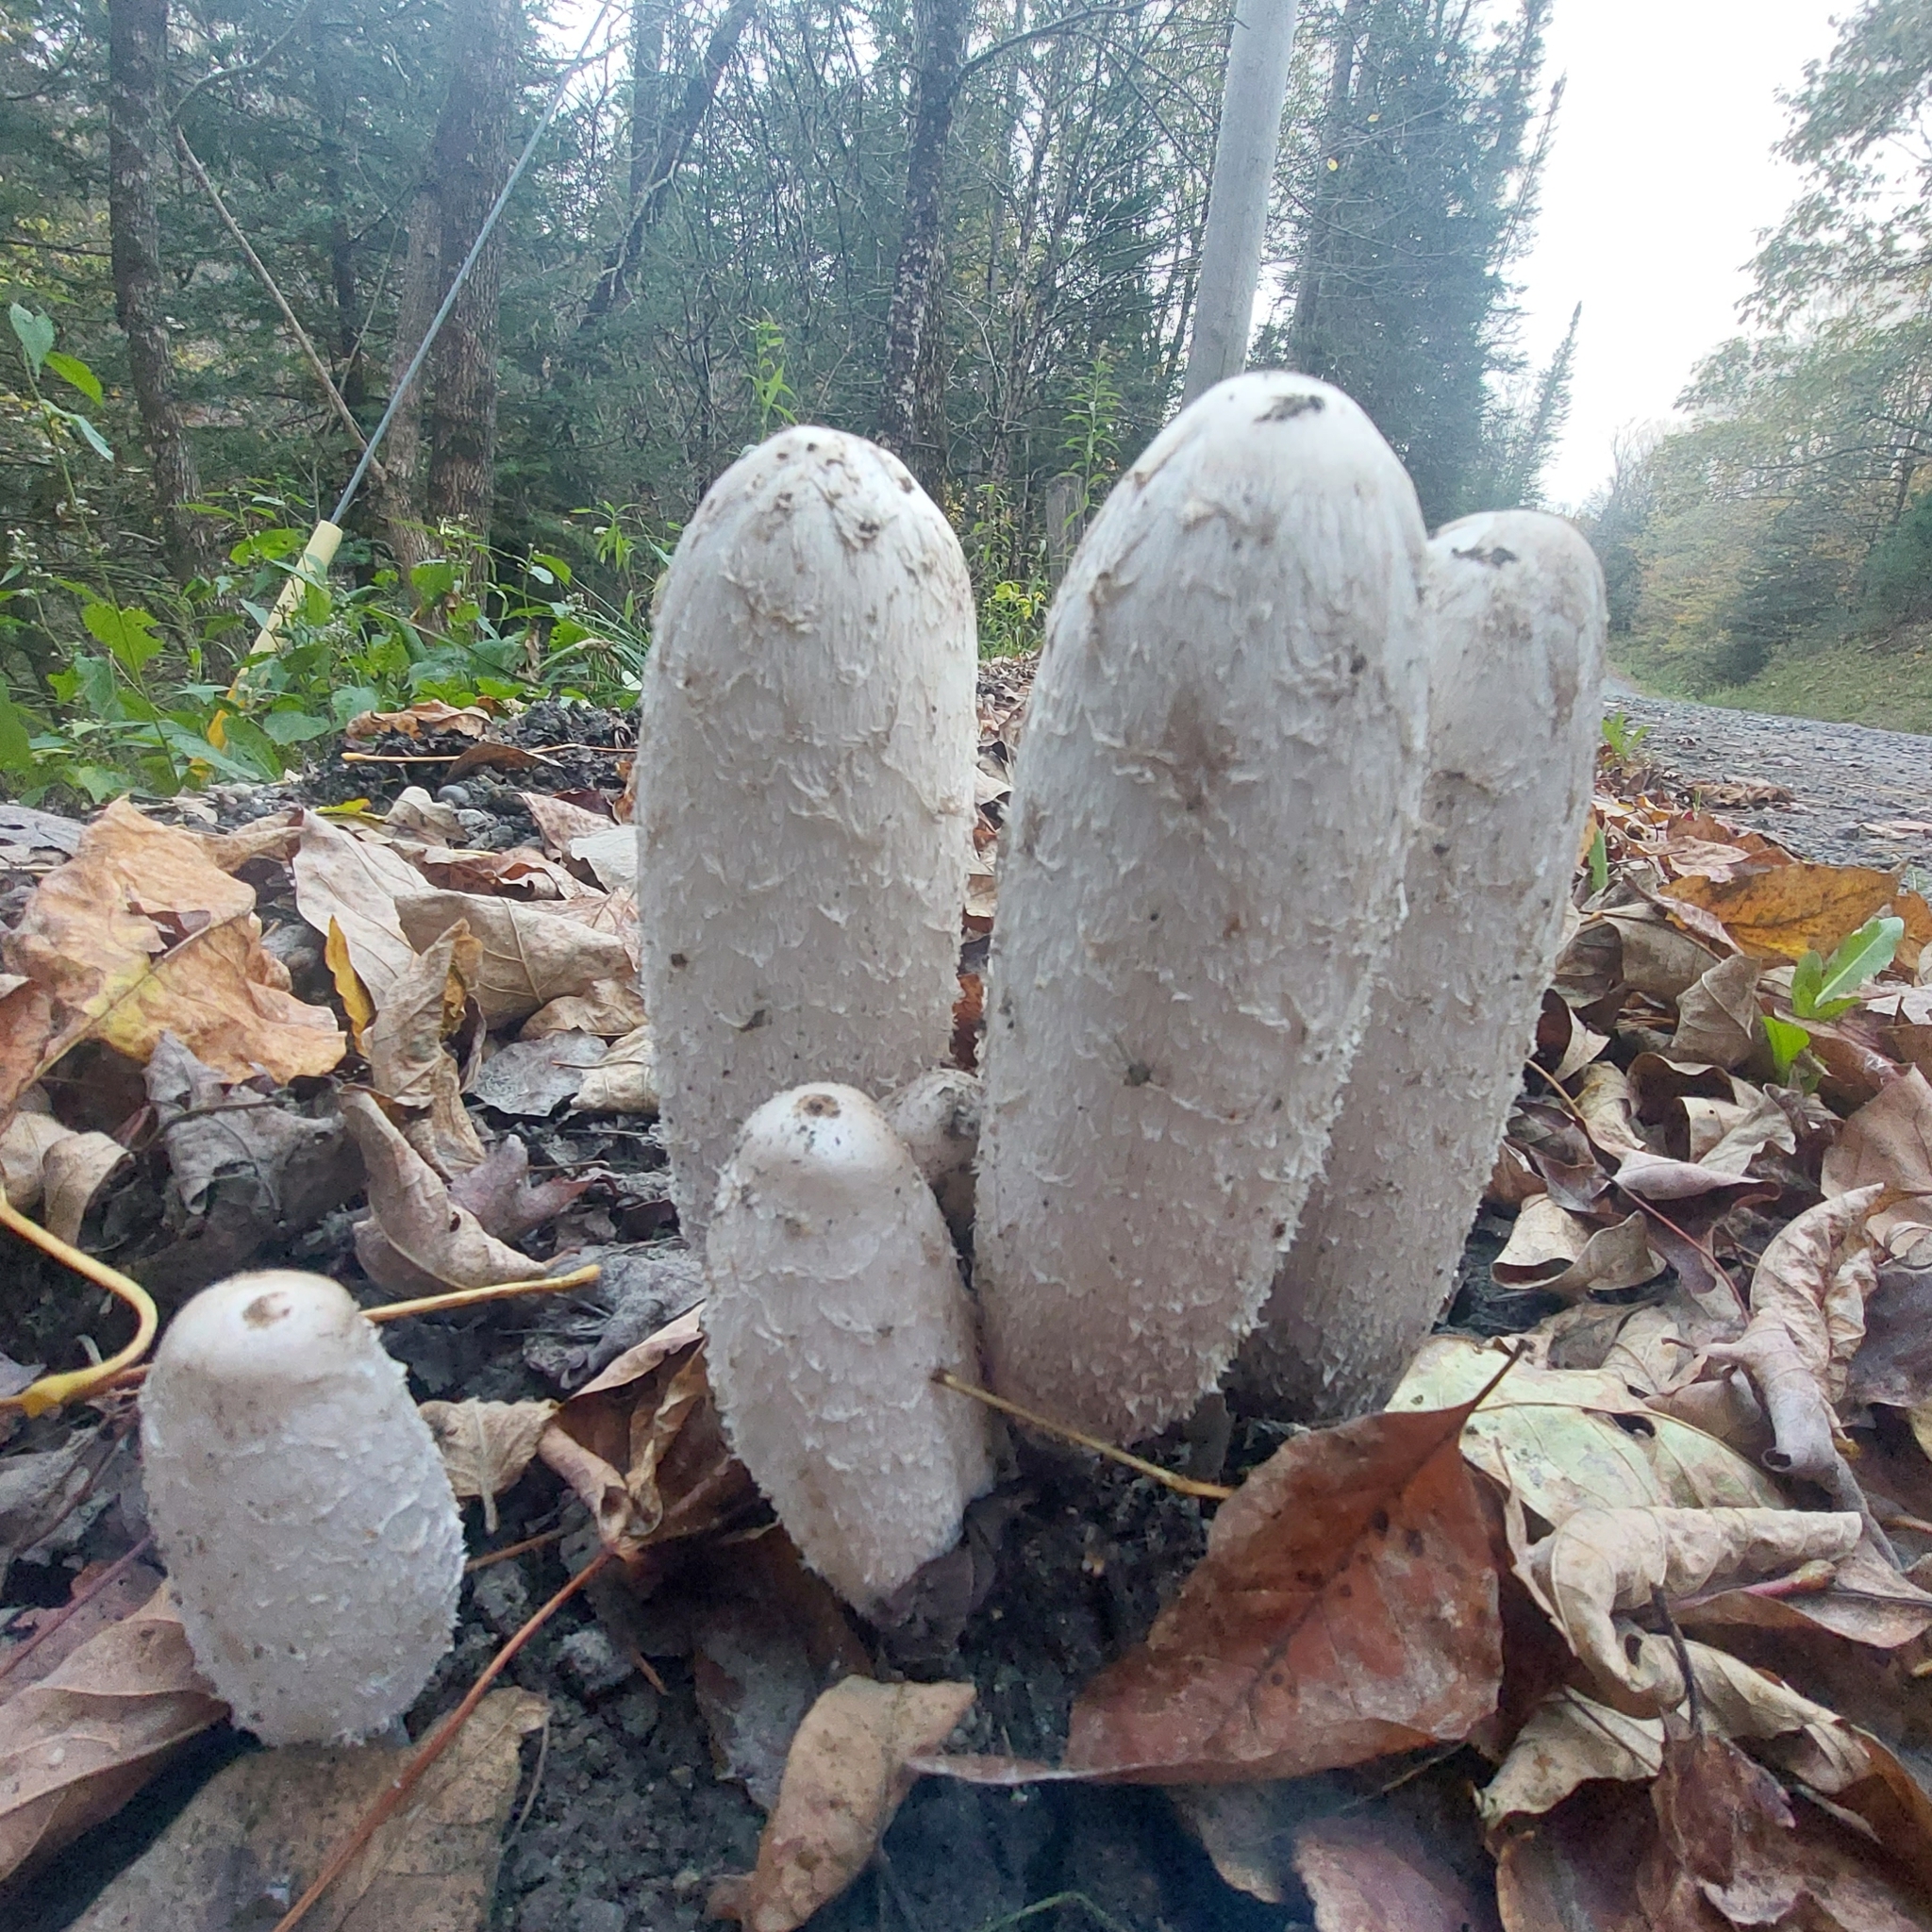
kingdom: Fungi
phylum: Basidiomycota
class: Agaricomycetes
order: Agaricales
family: Agaricaceae
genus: Coprinus
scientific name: Coprinus comatus
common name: Lawyer's wig
